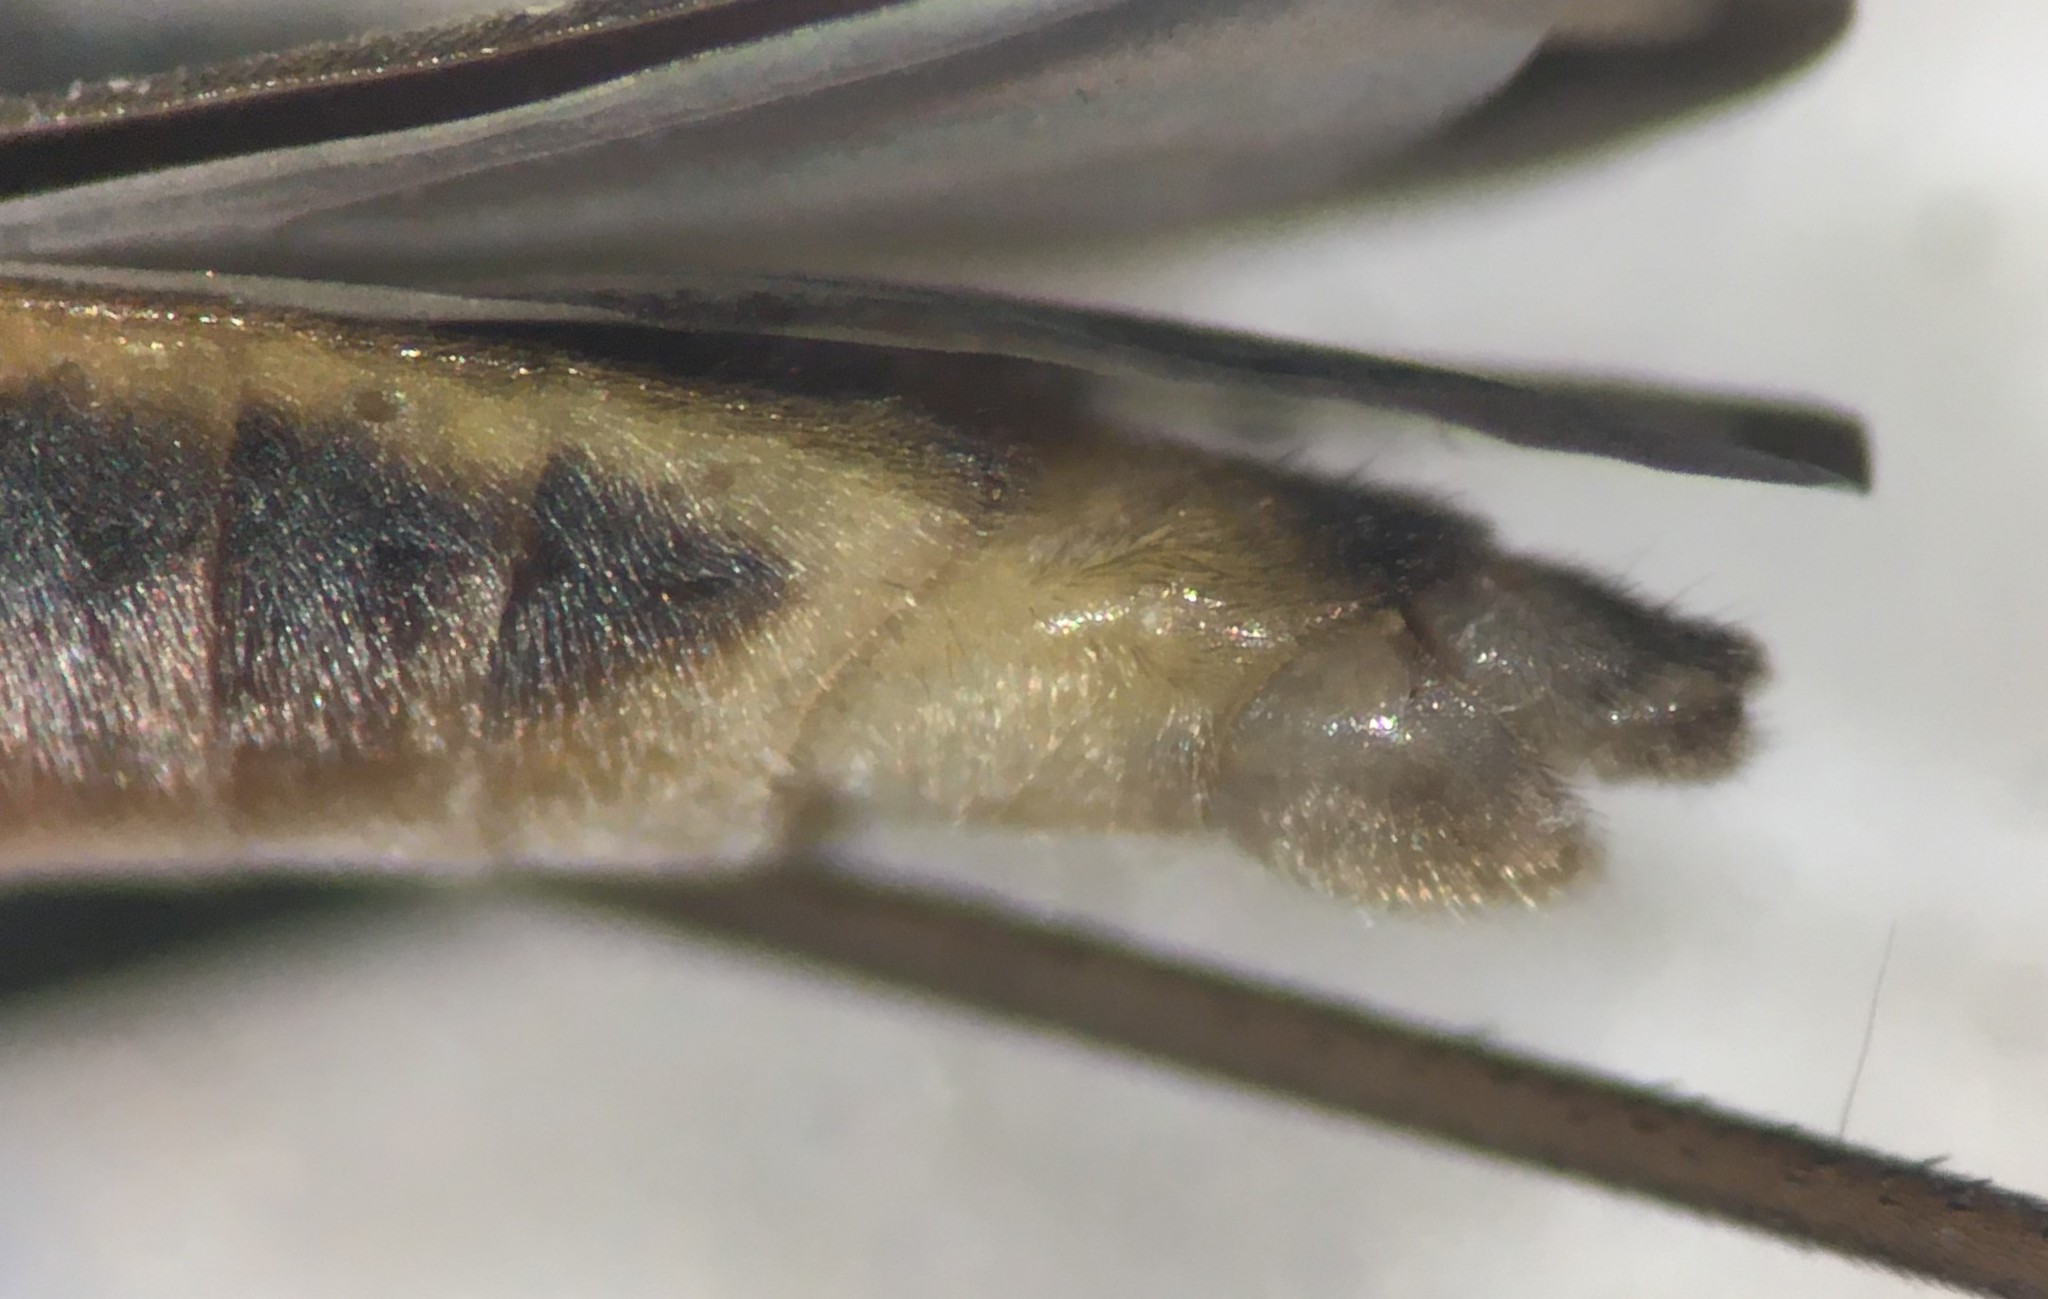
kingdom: Animalia
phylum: Arthropoda
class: Insecta
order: Hemiptera
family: Gerridae
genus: Limnogonus
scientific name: Limnogonus franciscanus
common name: Franciscan pond skater
